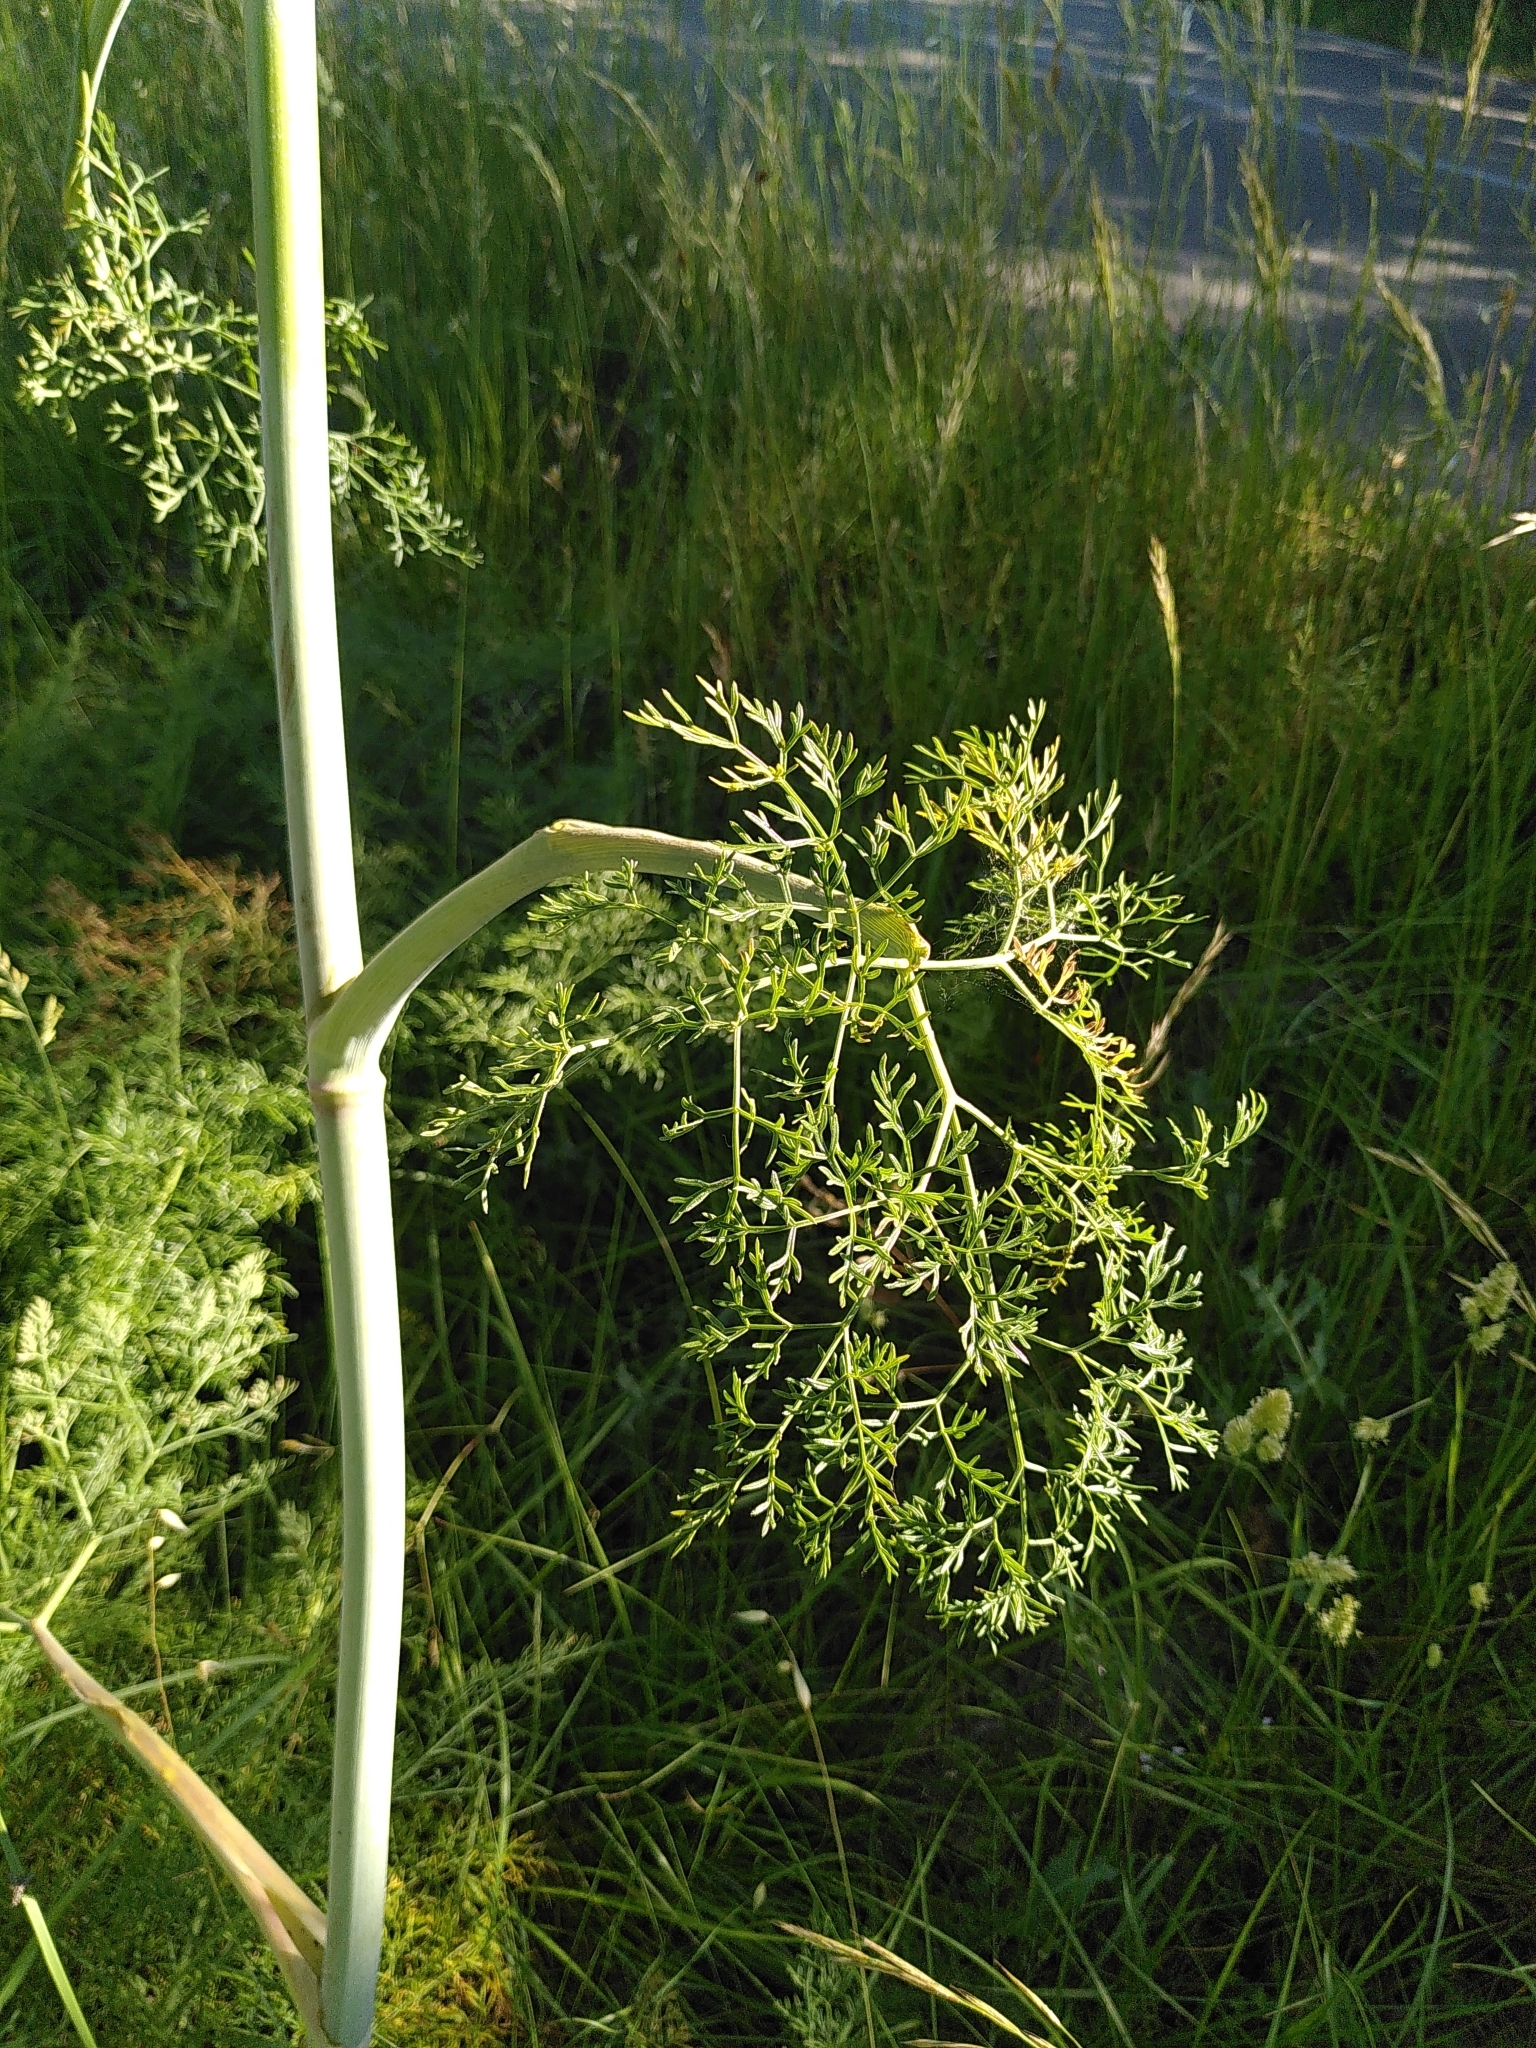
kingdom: Plantae
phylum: Tracheophyta
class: Magnoliopsida
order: Apiales
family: Apiaceae
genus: Ferula
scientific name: Ferula glauca
